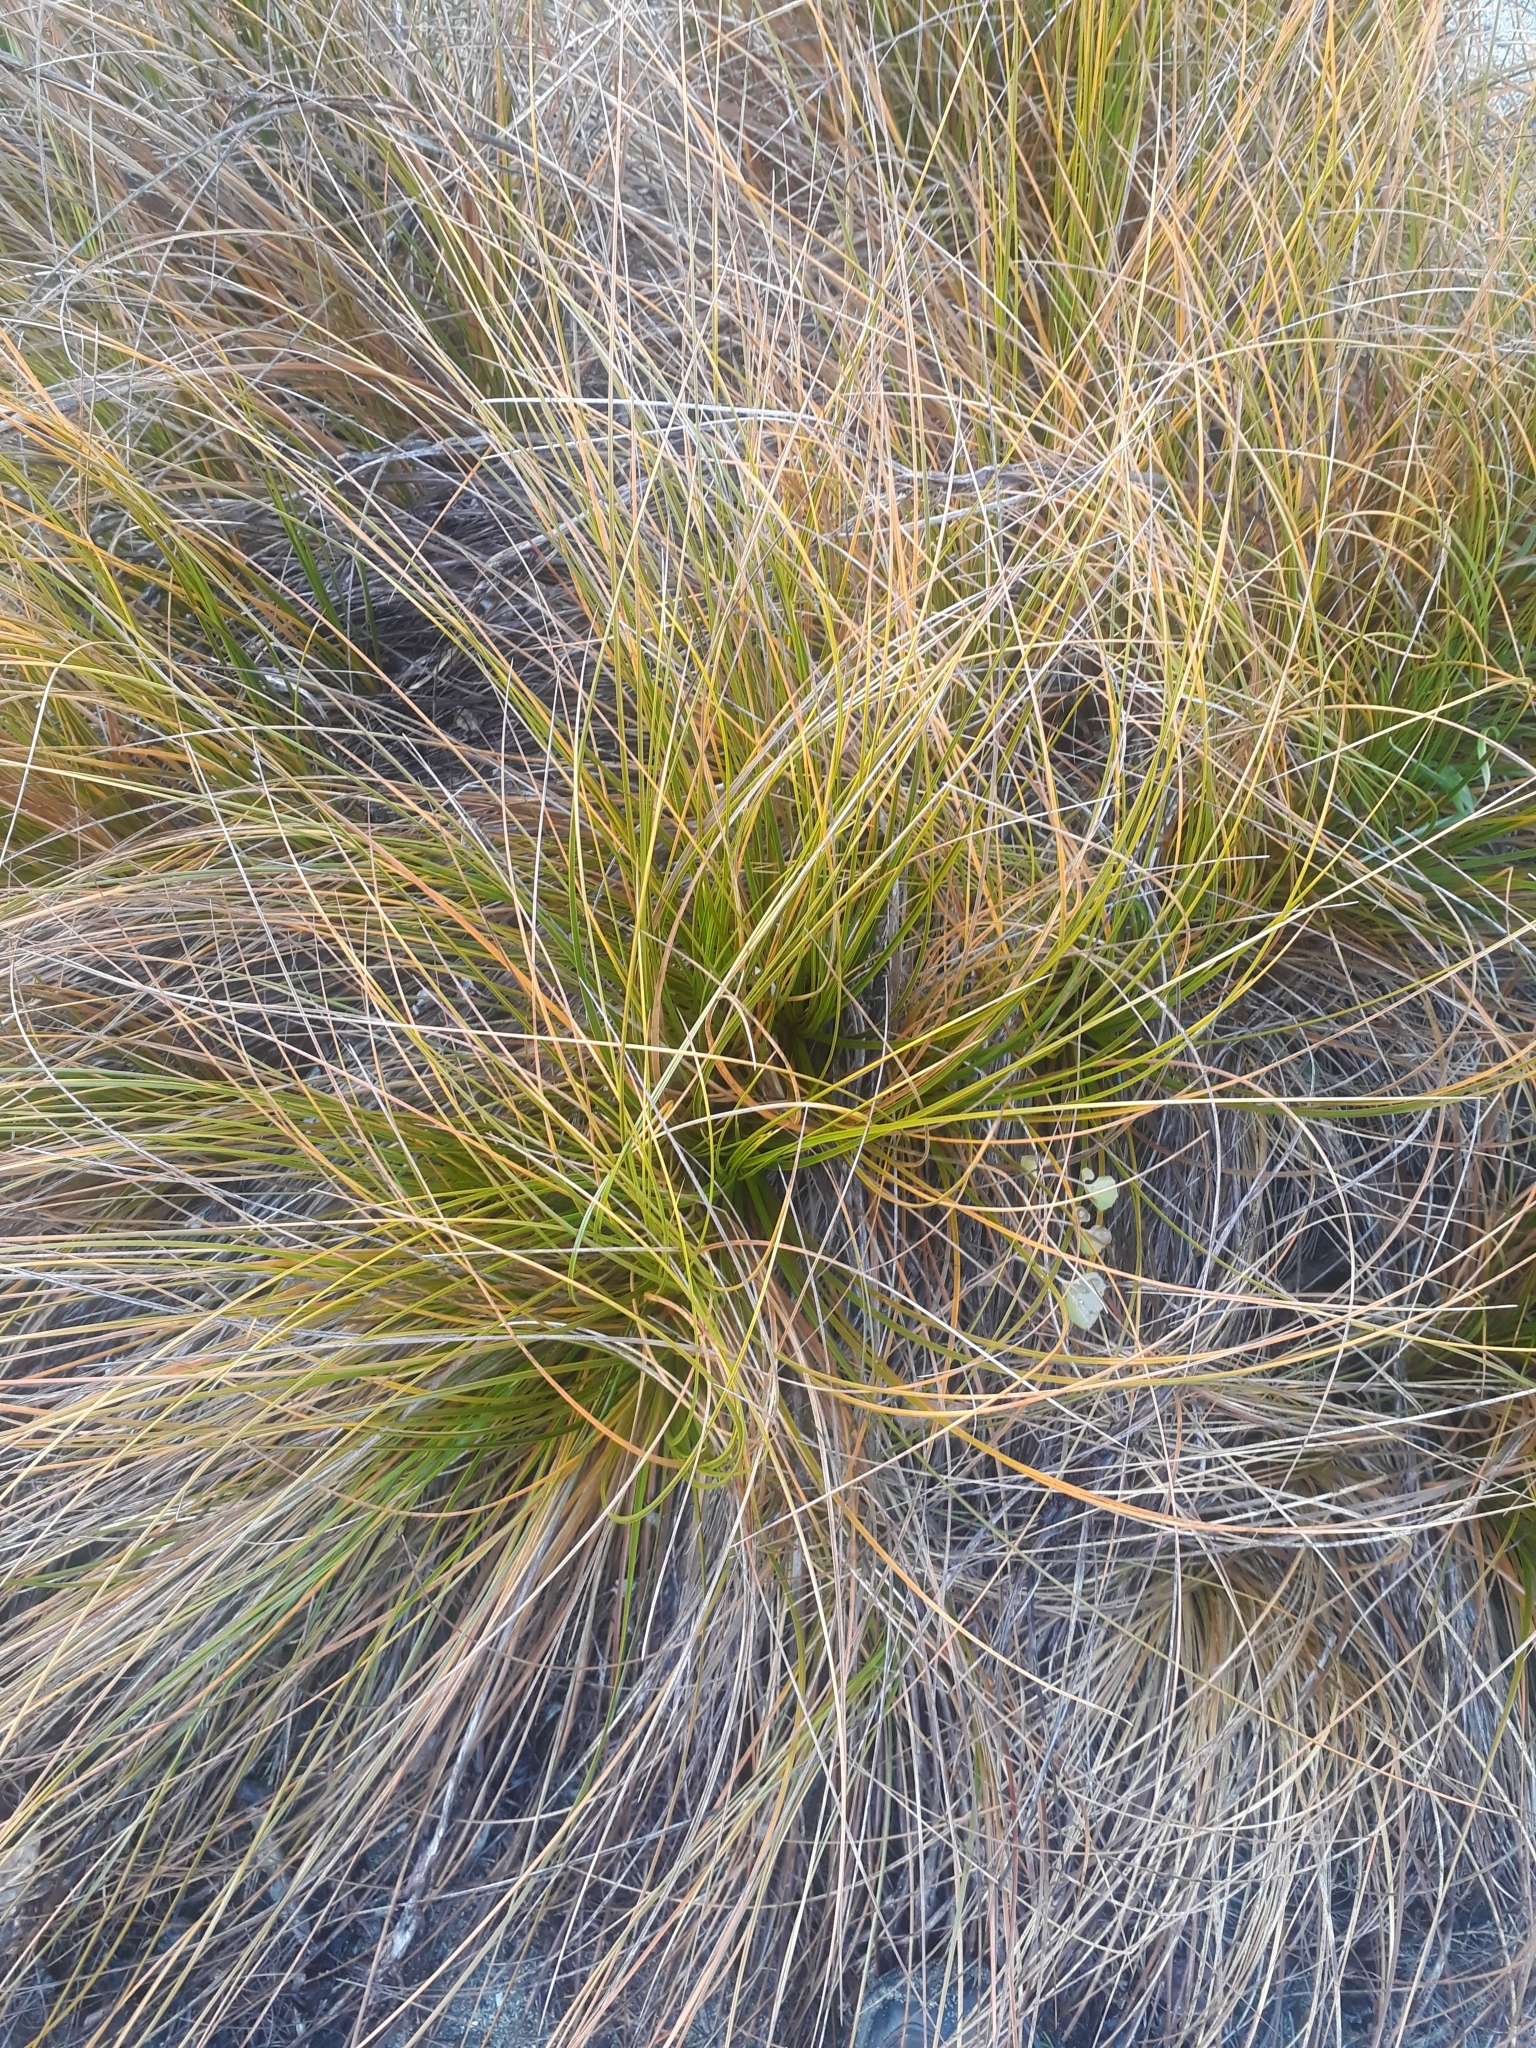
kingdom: Plantae
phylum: Tracheophyta
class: Liliopsida
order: Poales
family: Cyperaceae
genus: Ficinia
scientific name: Ficinia spiralis
